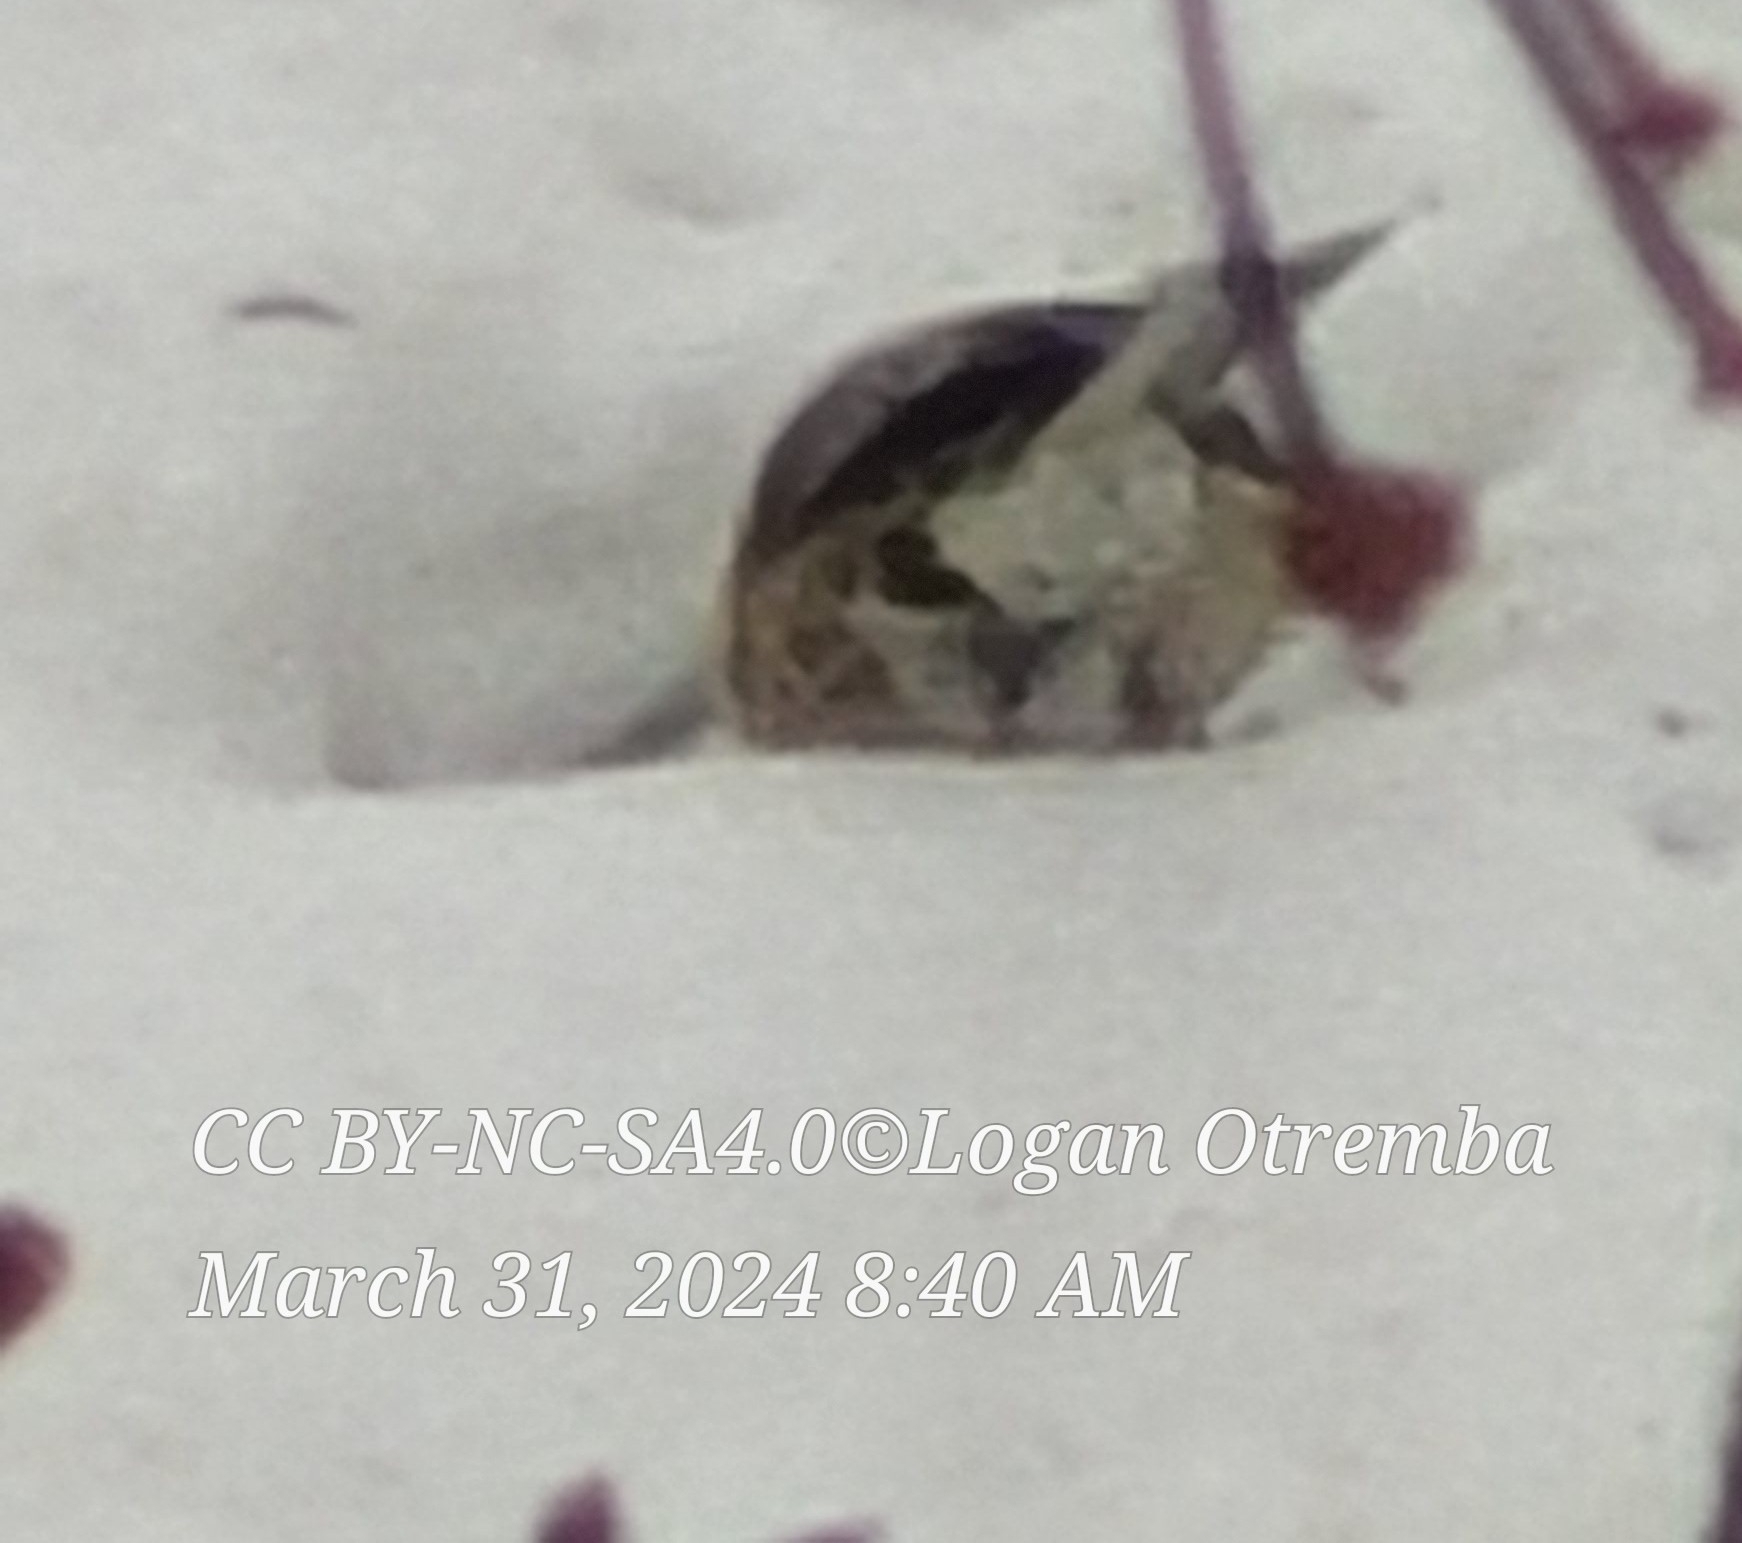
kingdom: Animalia
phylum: Chordata
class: Aves
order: Passeriformes
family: Passerellidae
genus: Spizelloides
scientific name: Spizelloides arborea
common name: American tree sparrow
